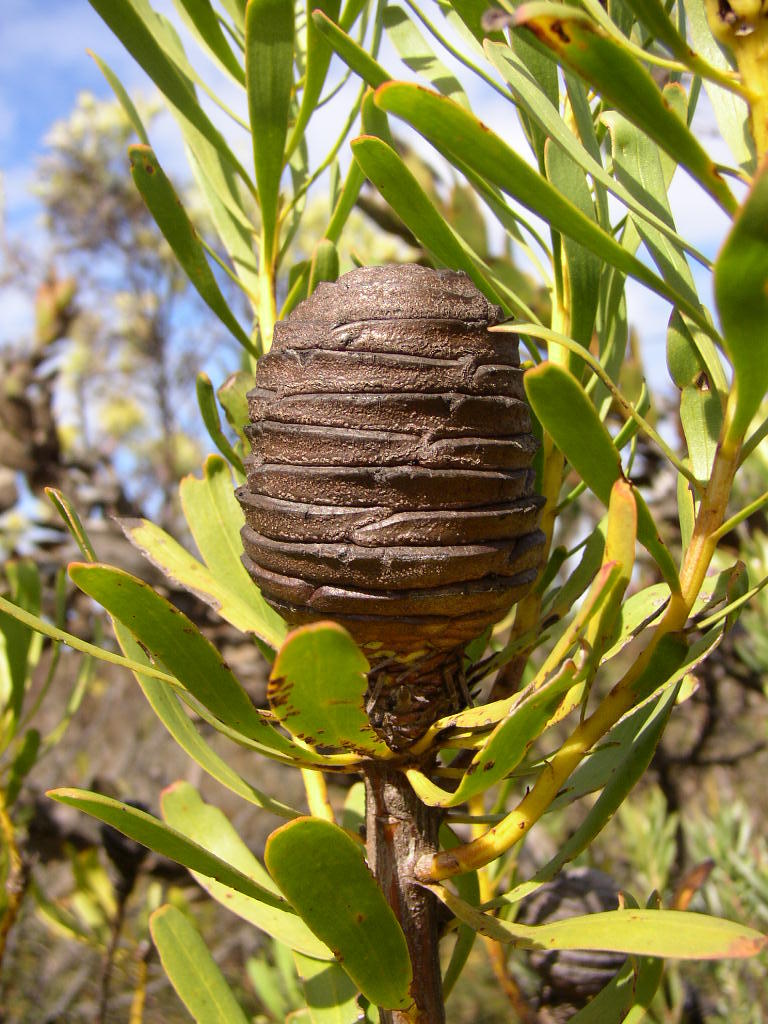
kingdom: Plantae
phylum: Tracheophyta
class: Magnoliopsida
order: Proteales
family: Proteaceae
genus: Leucadendron
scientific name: Leucadendron platyspermum
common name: Plate-seed conebush
